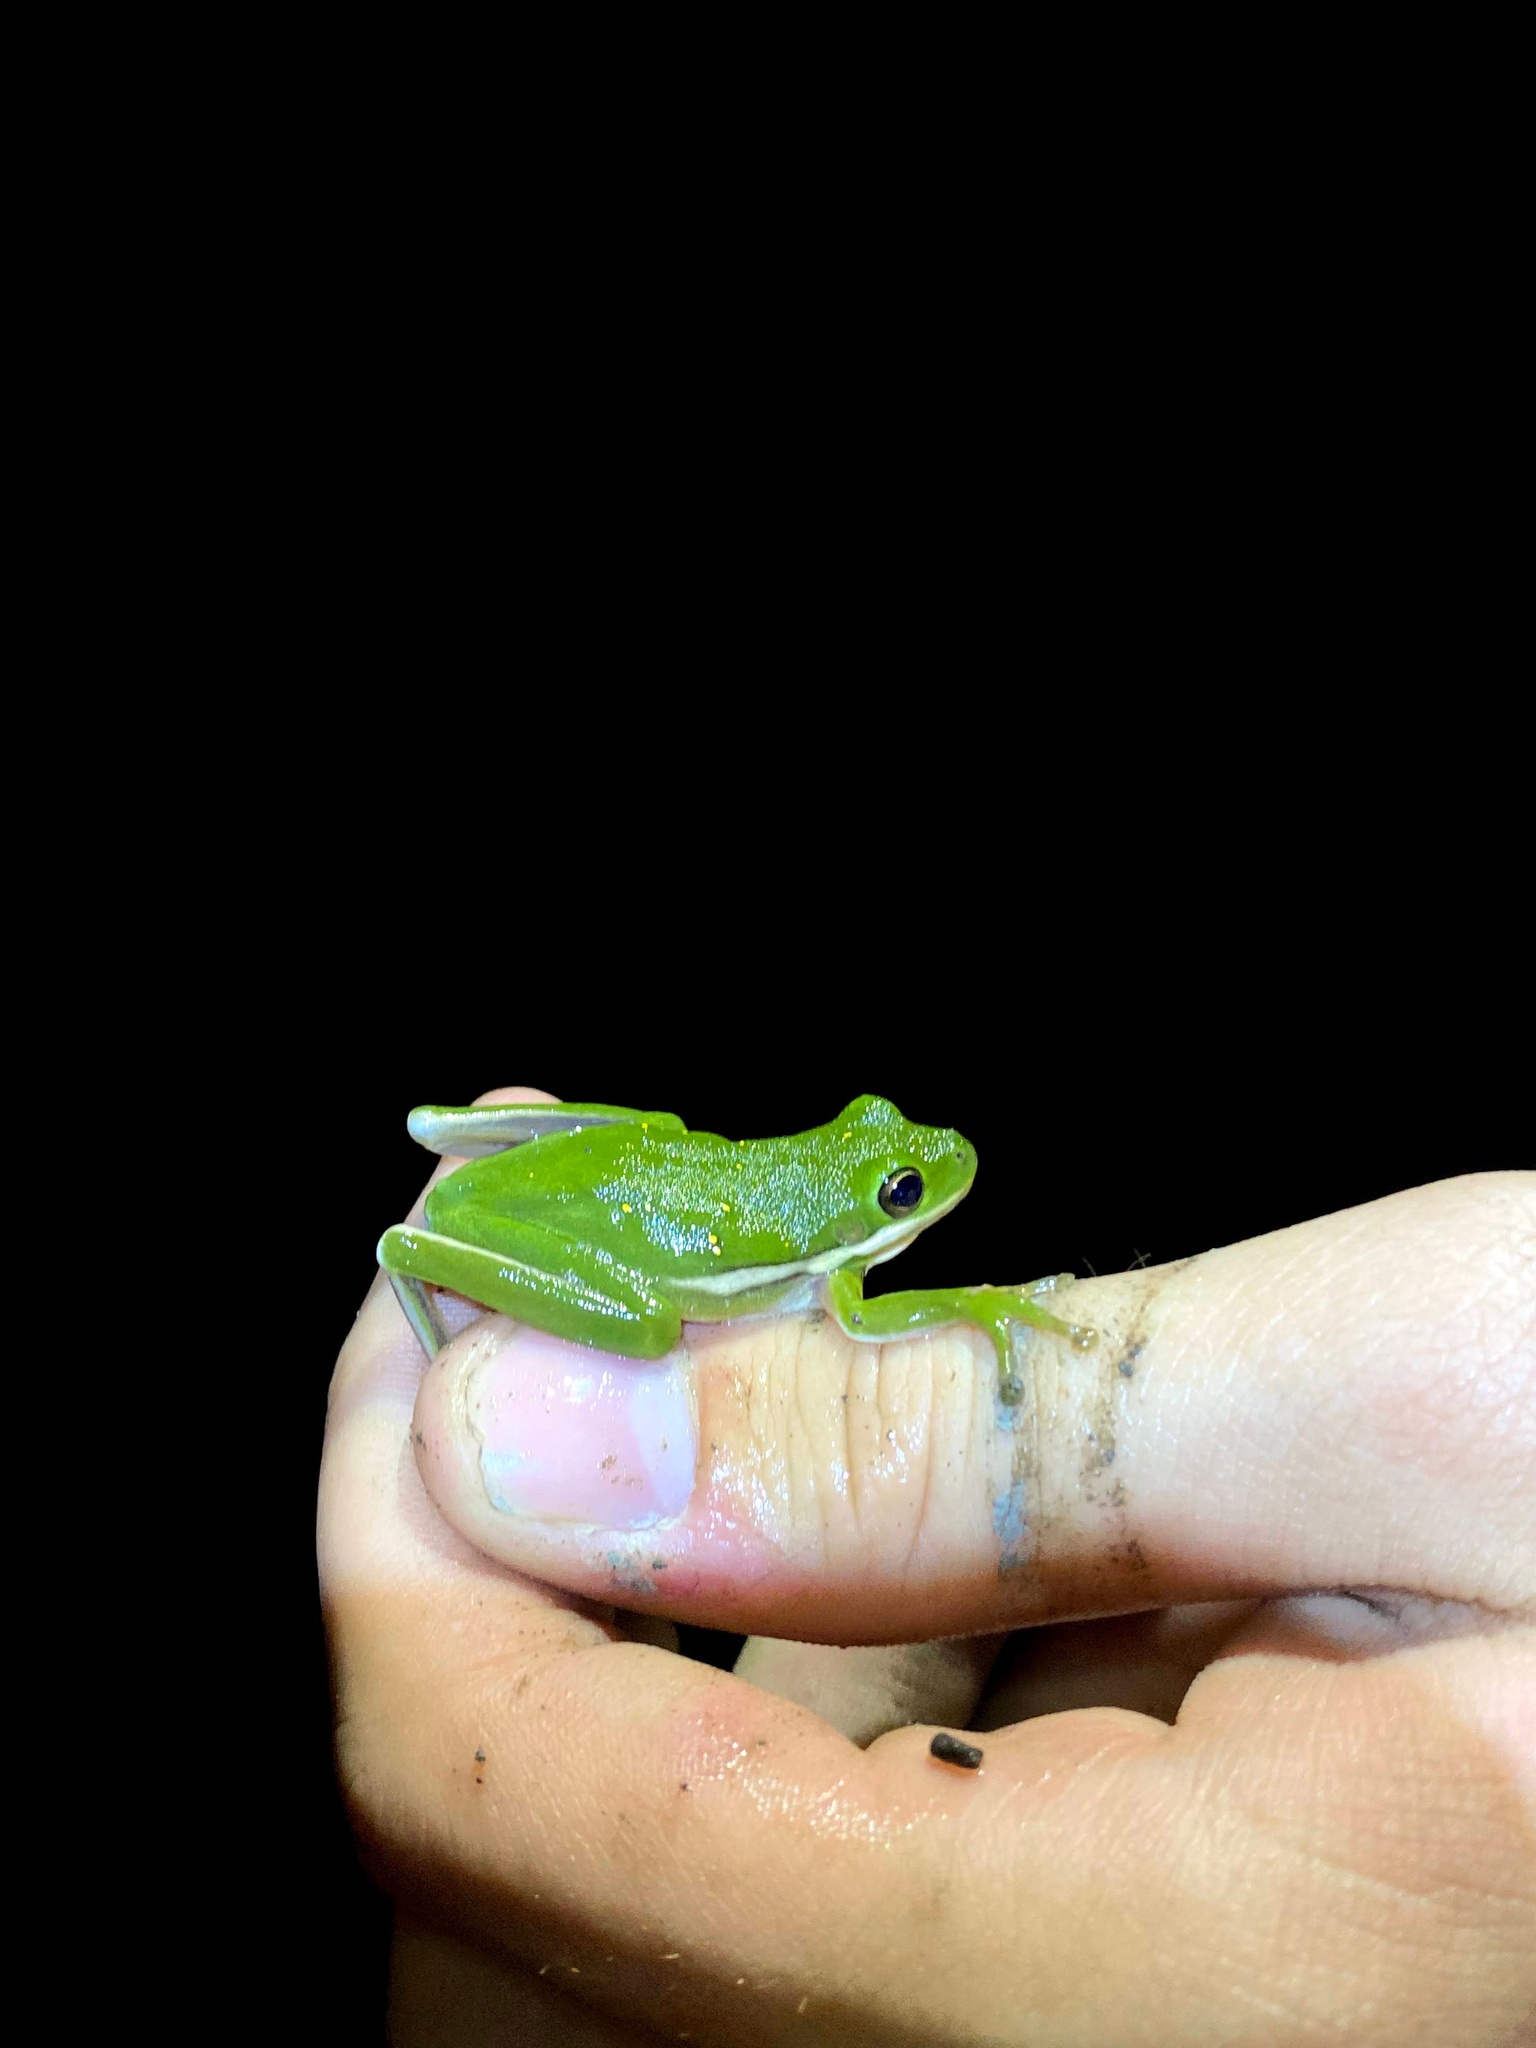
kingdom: Animalia
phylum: Chordata
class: Amphibia
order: Anura
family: Hylidae
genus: Dryophytes
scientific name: Dryophytes cinereus
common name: Green treefrog
